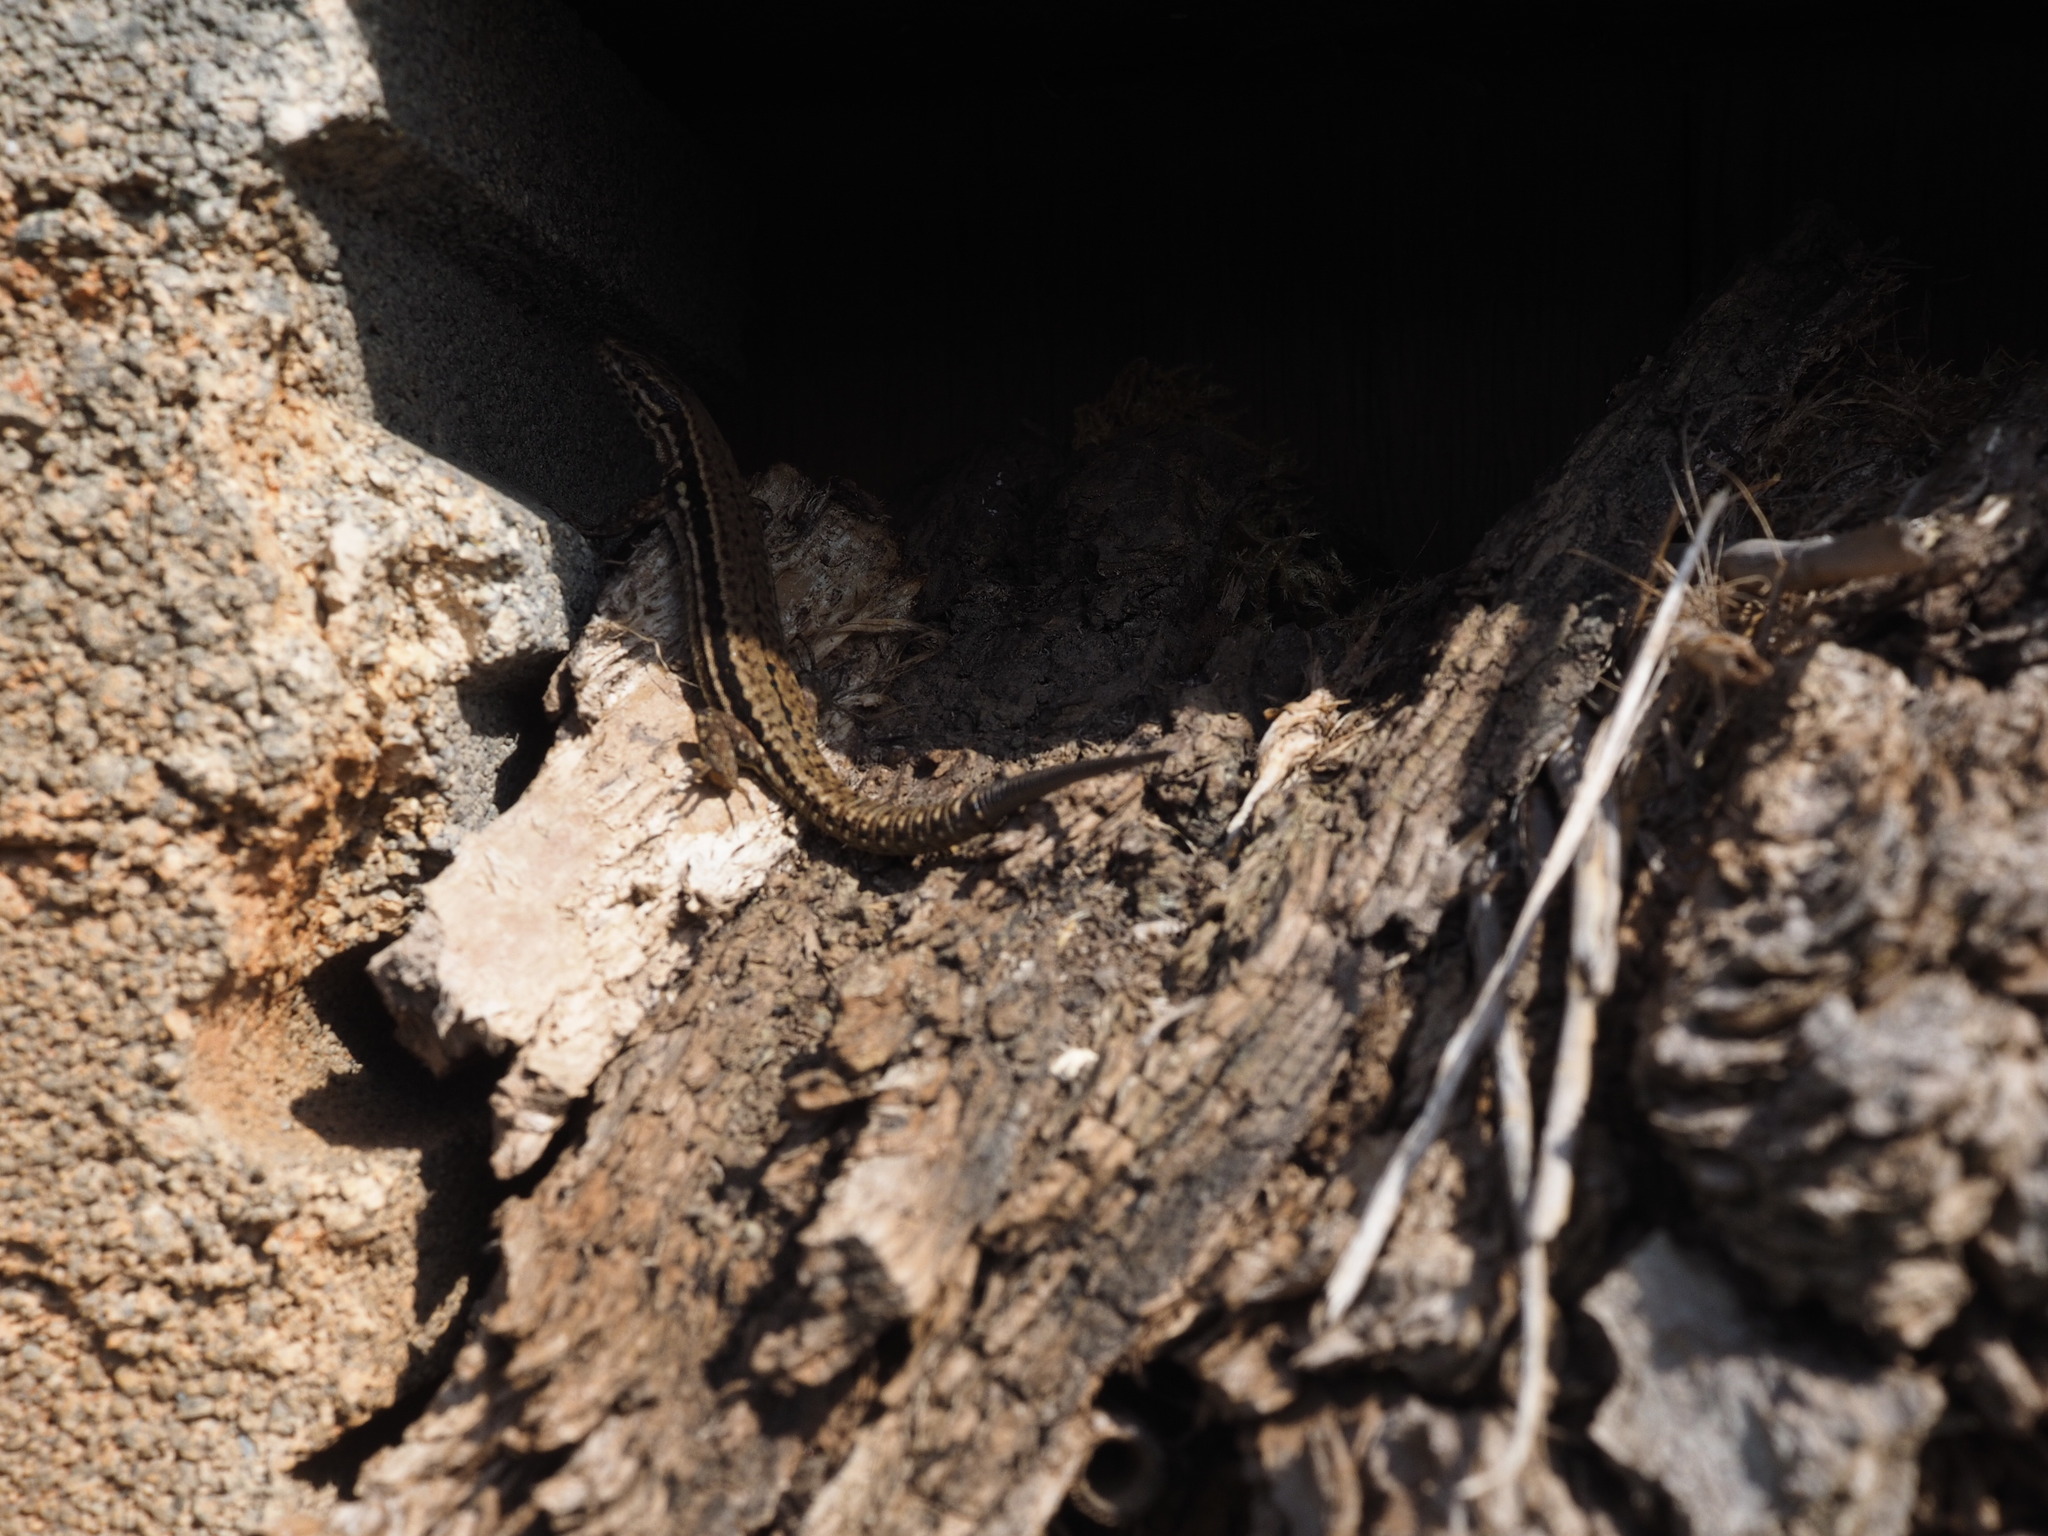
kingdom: Animalia
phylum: Chordata
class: Squamata
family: Lacertidae
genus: Podarcis
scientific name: Podarcis muralis
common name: Common wall lizard
